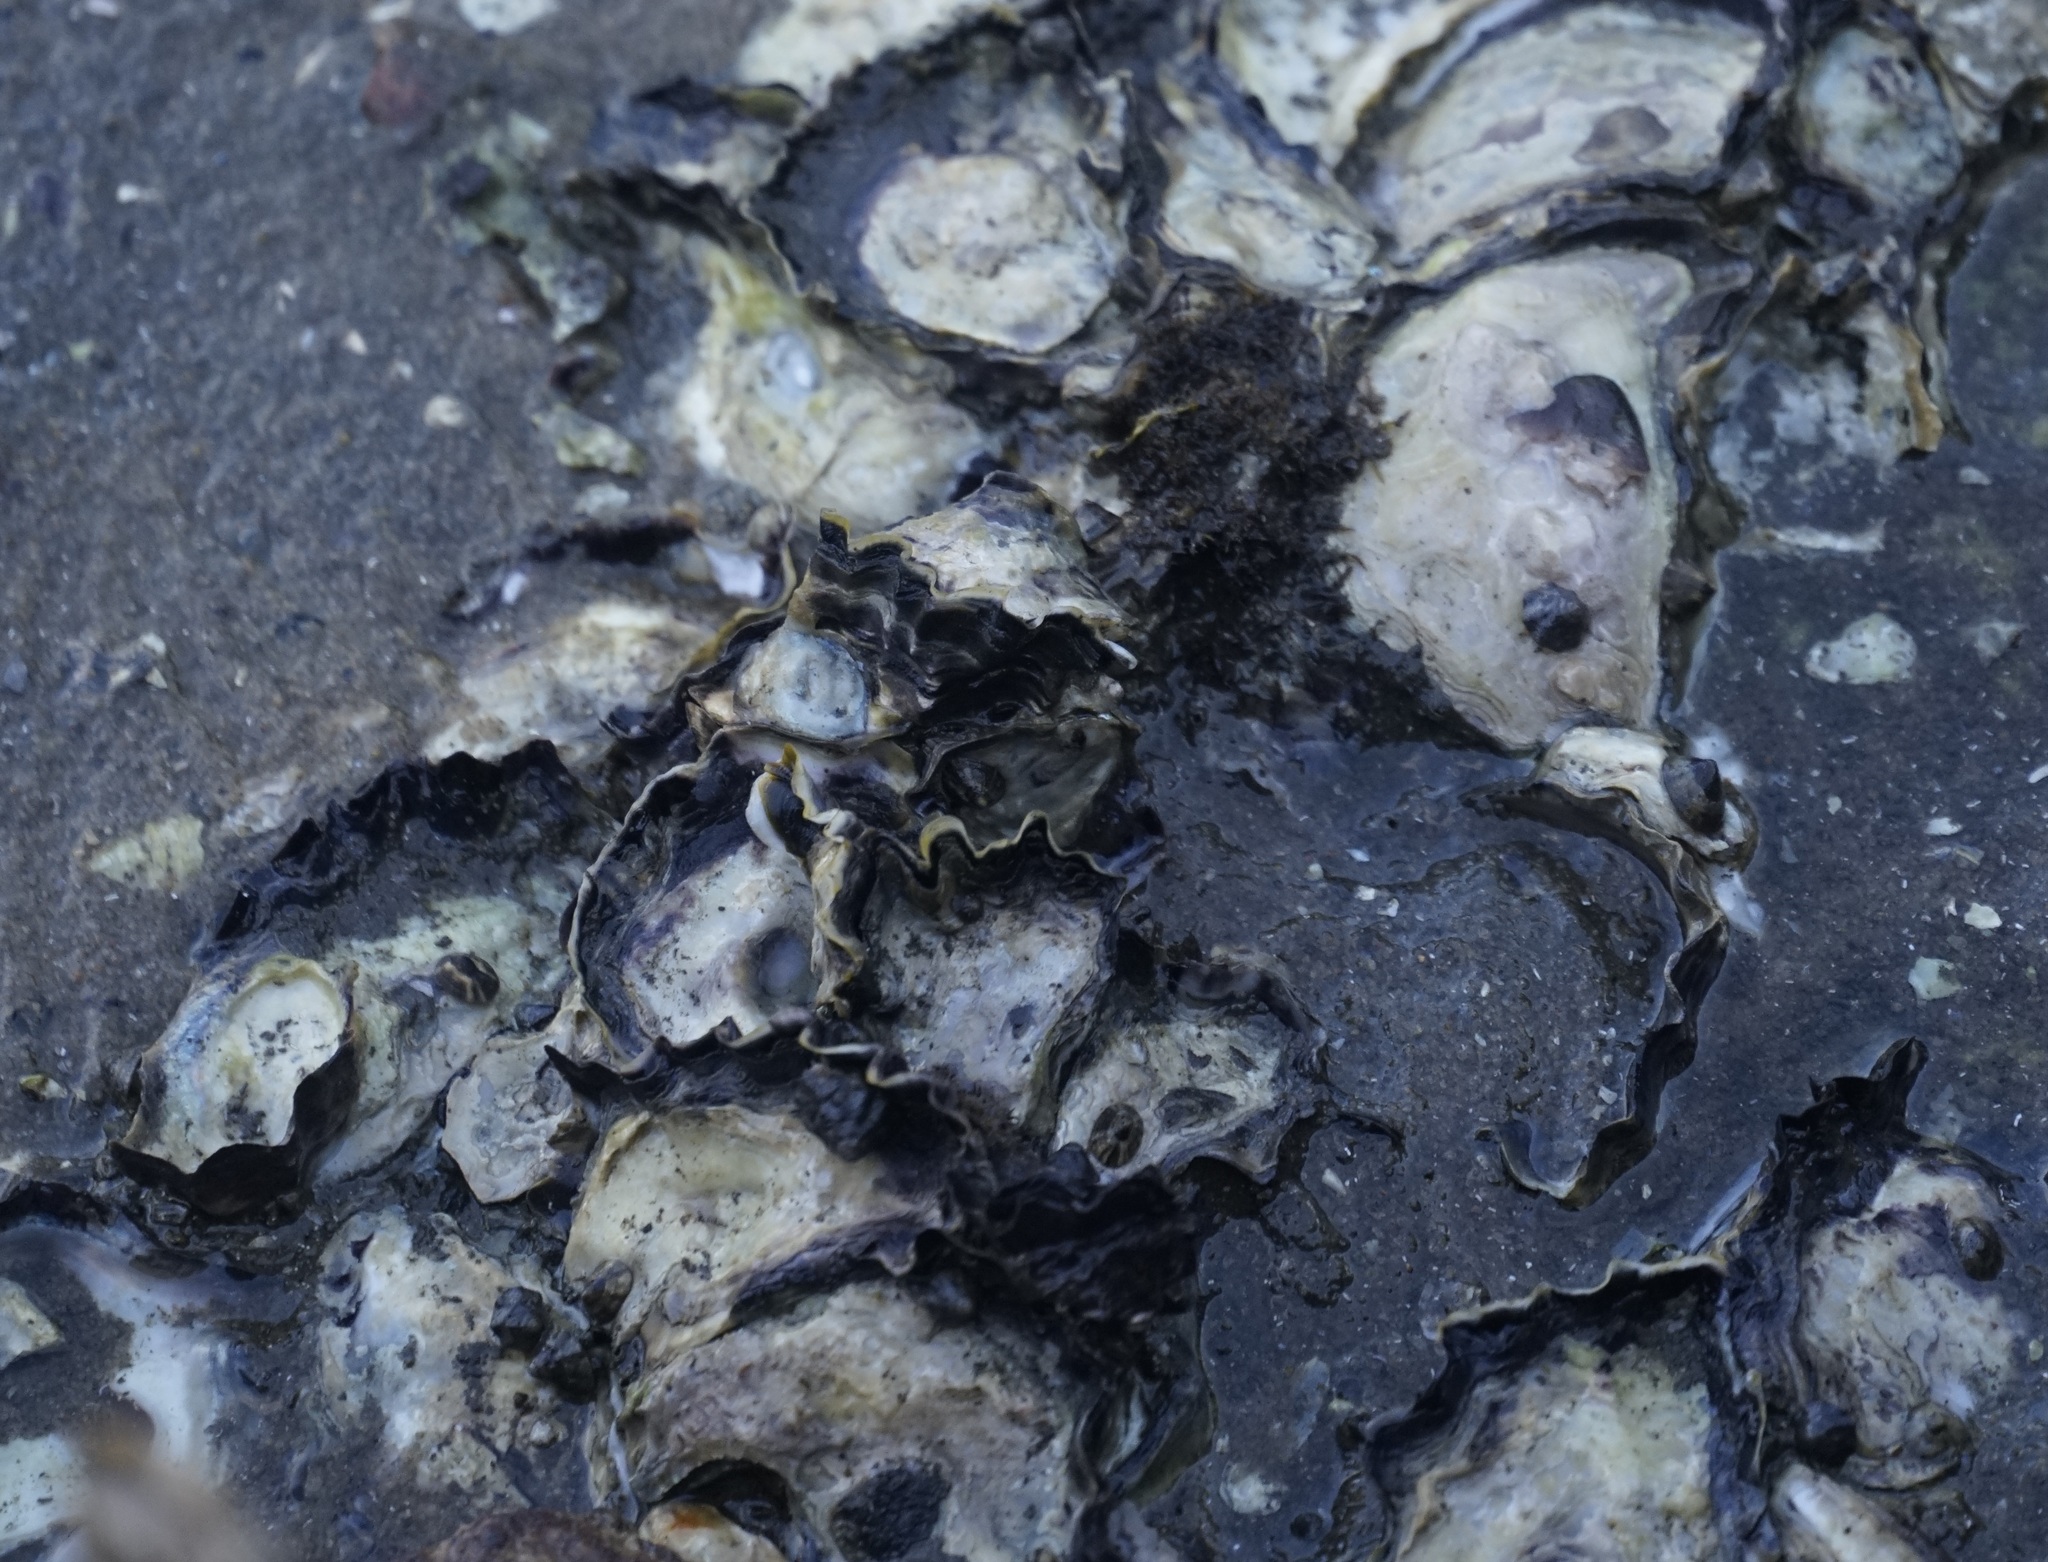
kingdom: Animalia
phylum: Mollusca
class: Bivalvia
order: Ostreida
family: Ostreidae
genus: Saccostrea
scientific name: Saccostrea glomerata
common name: Sydney cupped oyster
